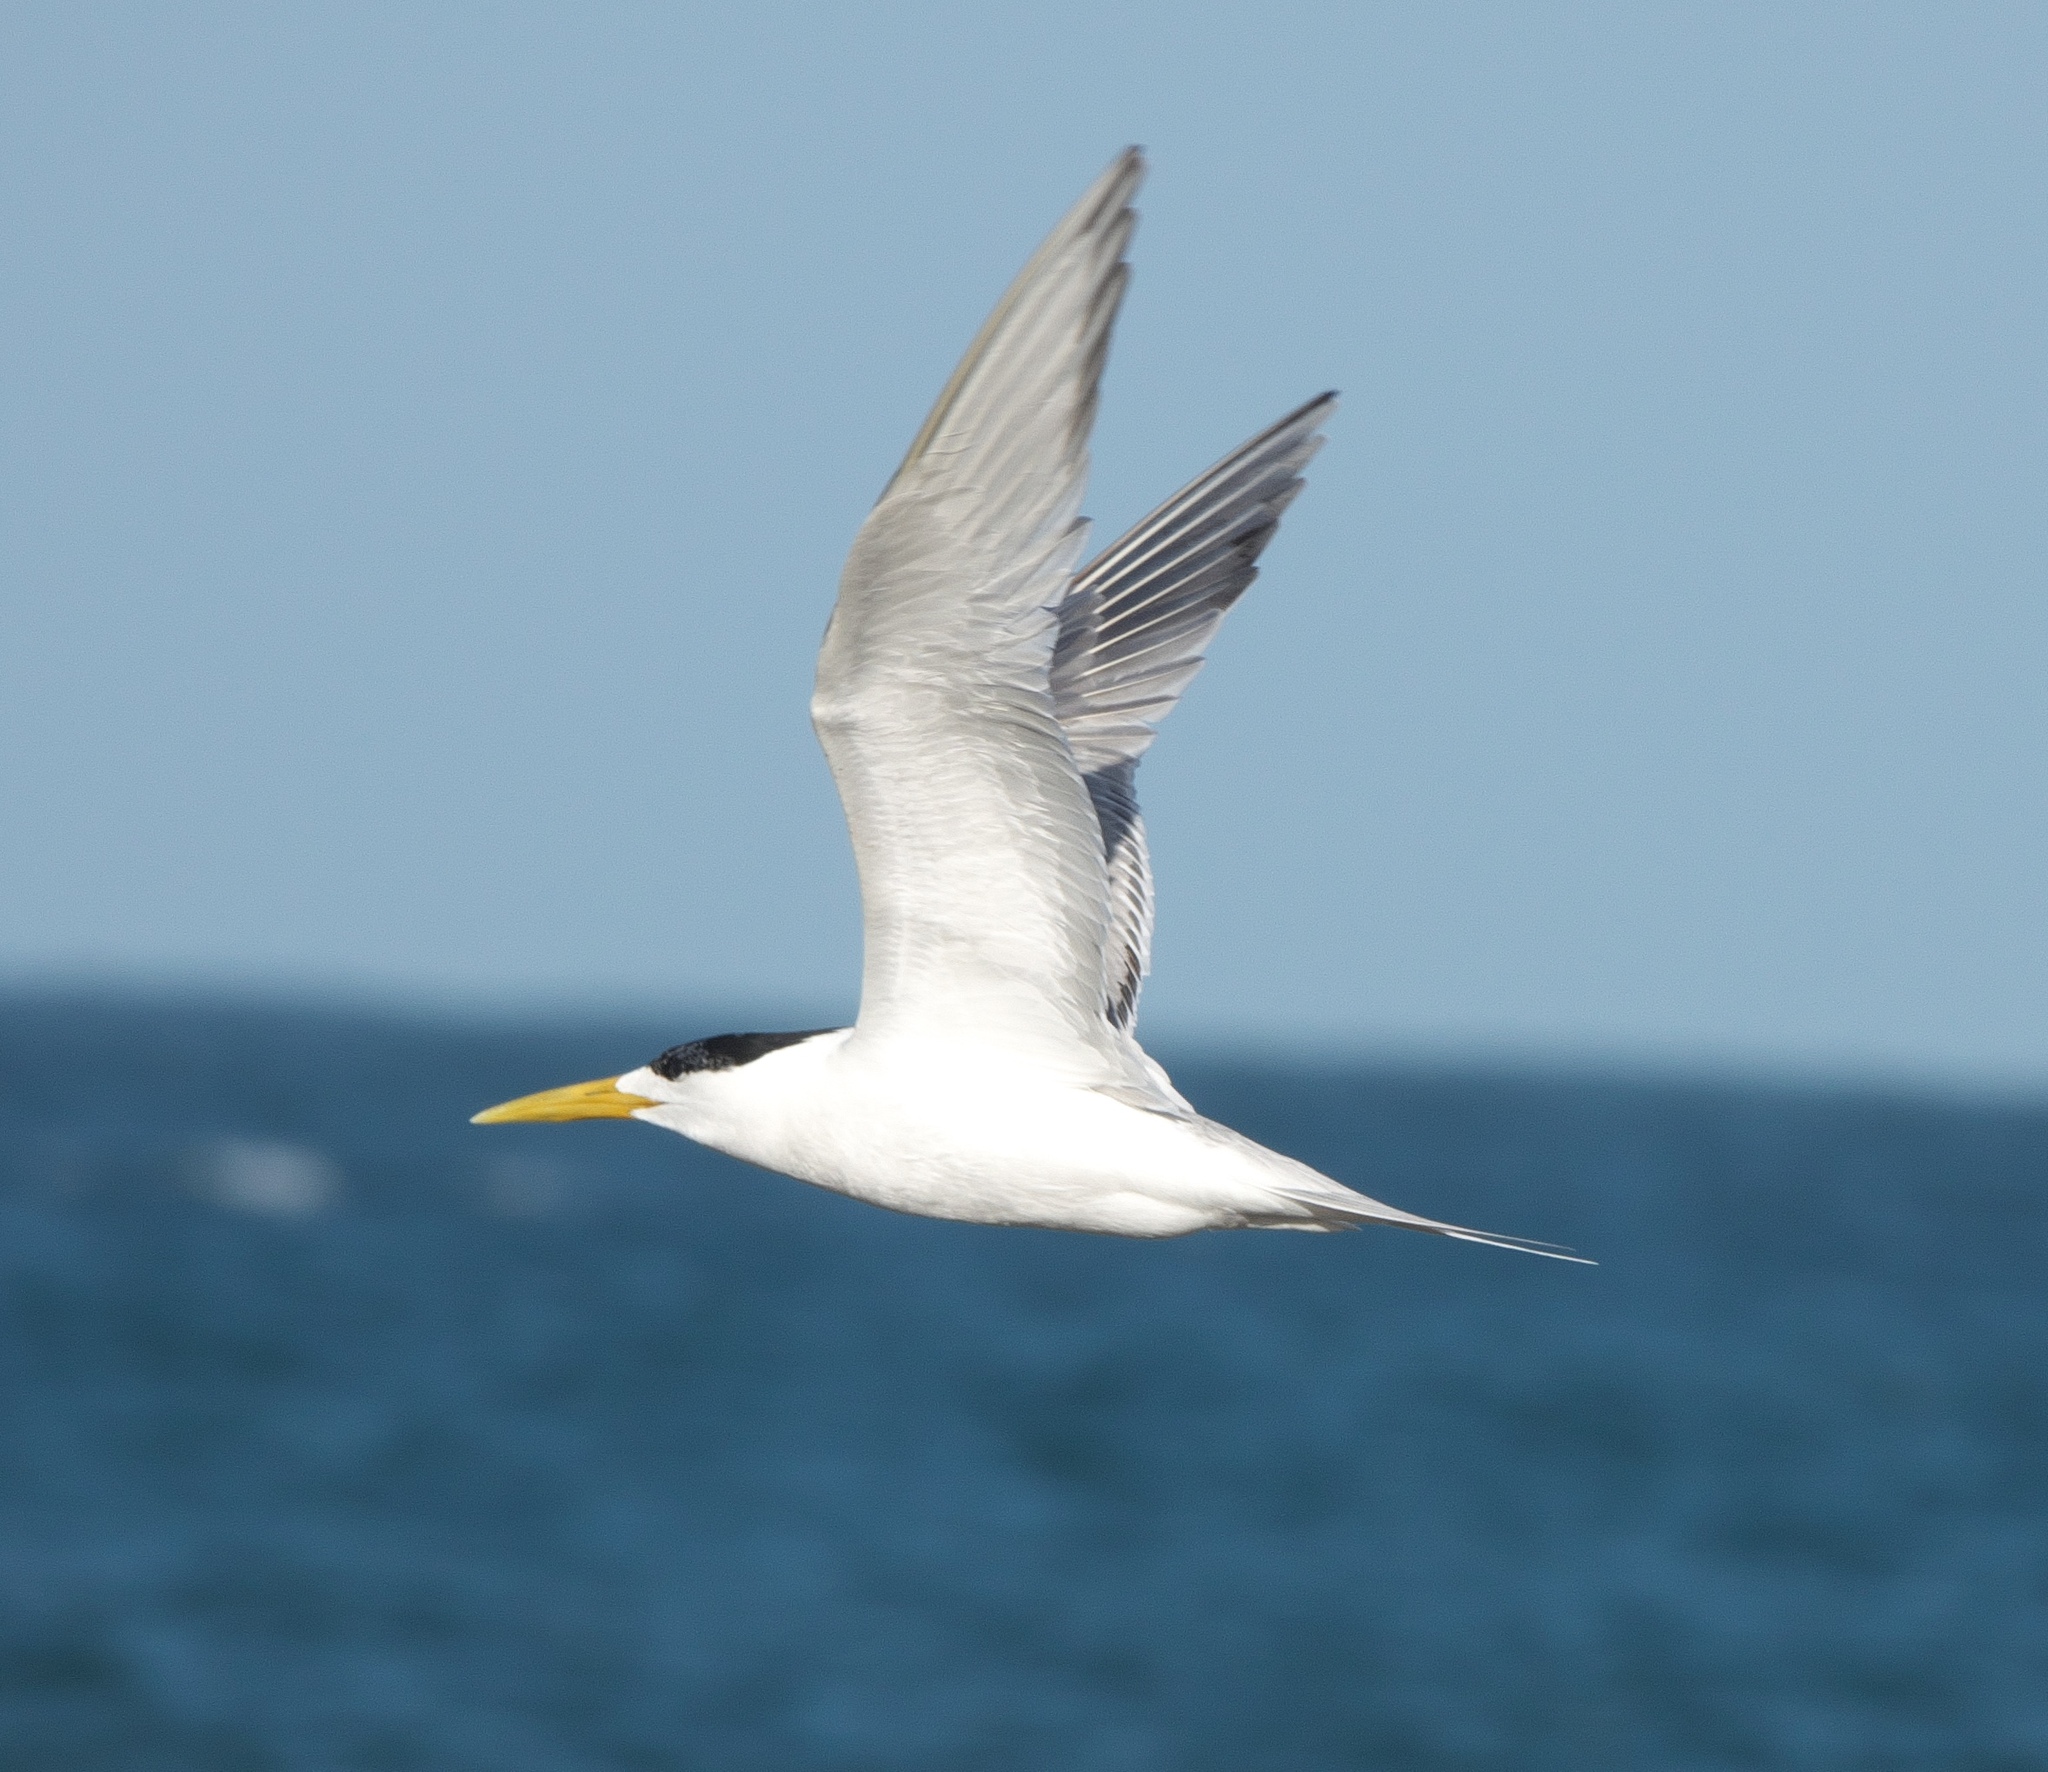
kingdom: Animalia
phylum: Chordata
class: Aves
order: Charadriiformes
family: Laridae
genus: Thalasseus
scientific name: Thalasseus bergii
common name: Greater crested tern
